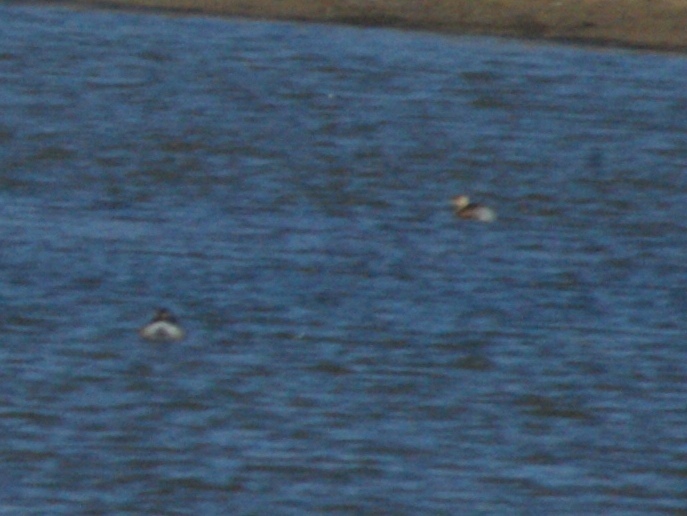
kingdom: Animalia
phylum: Chordata
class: Aves
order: Podicipediformes
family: Podicipedidae
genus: Tachybaptus
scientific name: Tachybaptus ruficollis
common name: Little grebe
